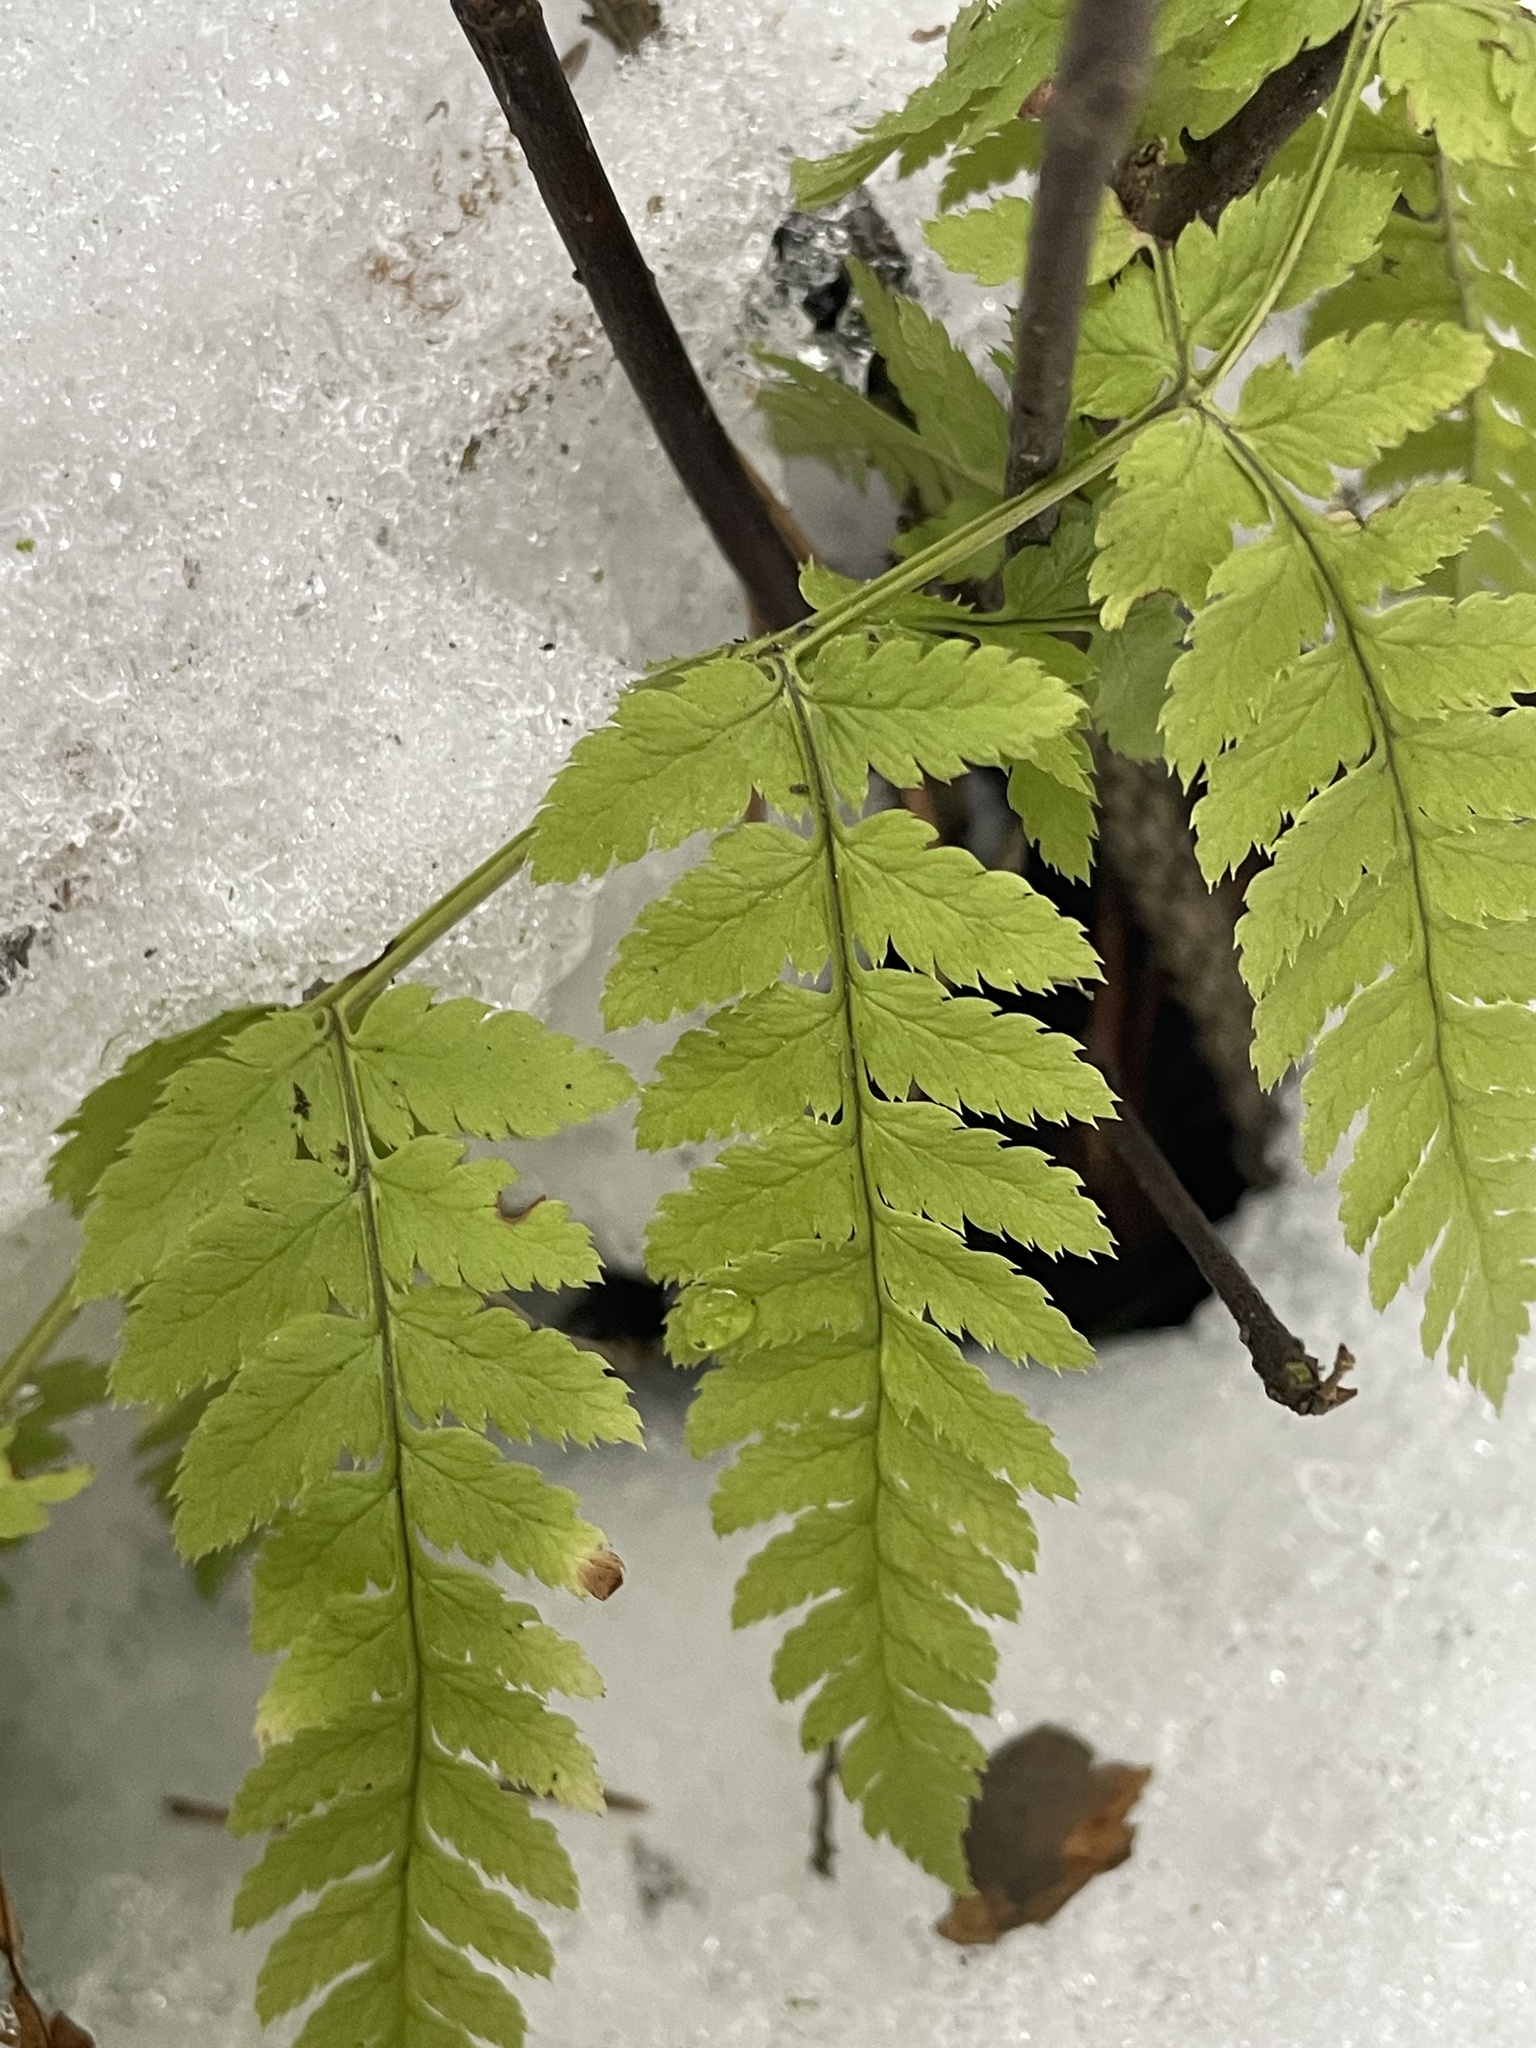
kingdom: Plantae
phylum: Tracheophyta
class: Polypodiopsida
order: Polypodiales
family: Dryopteridaceae
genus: Dryopteris
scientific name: Dryopteris carthusiana
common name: Narrow buckler-fern
